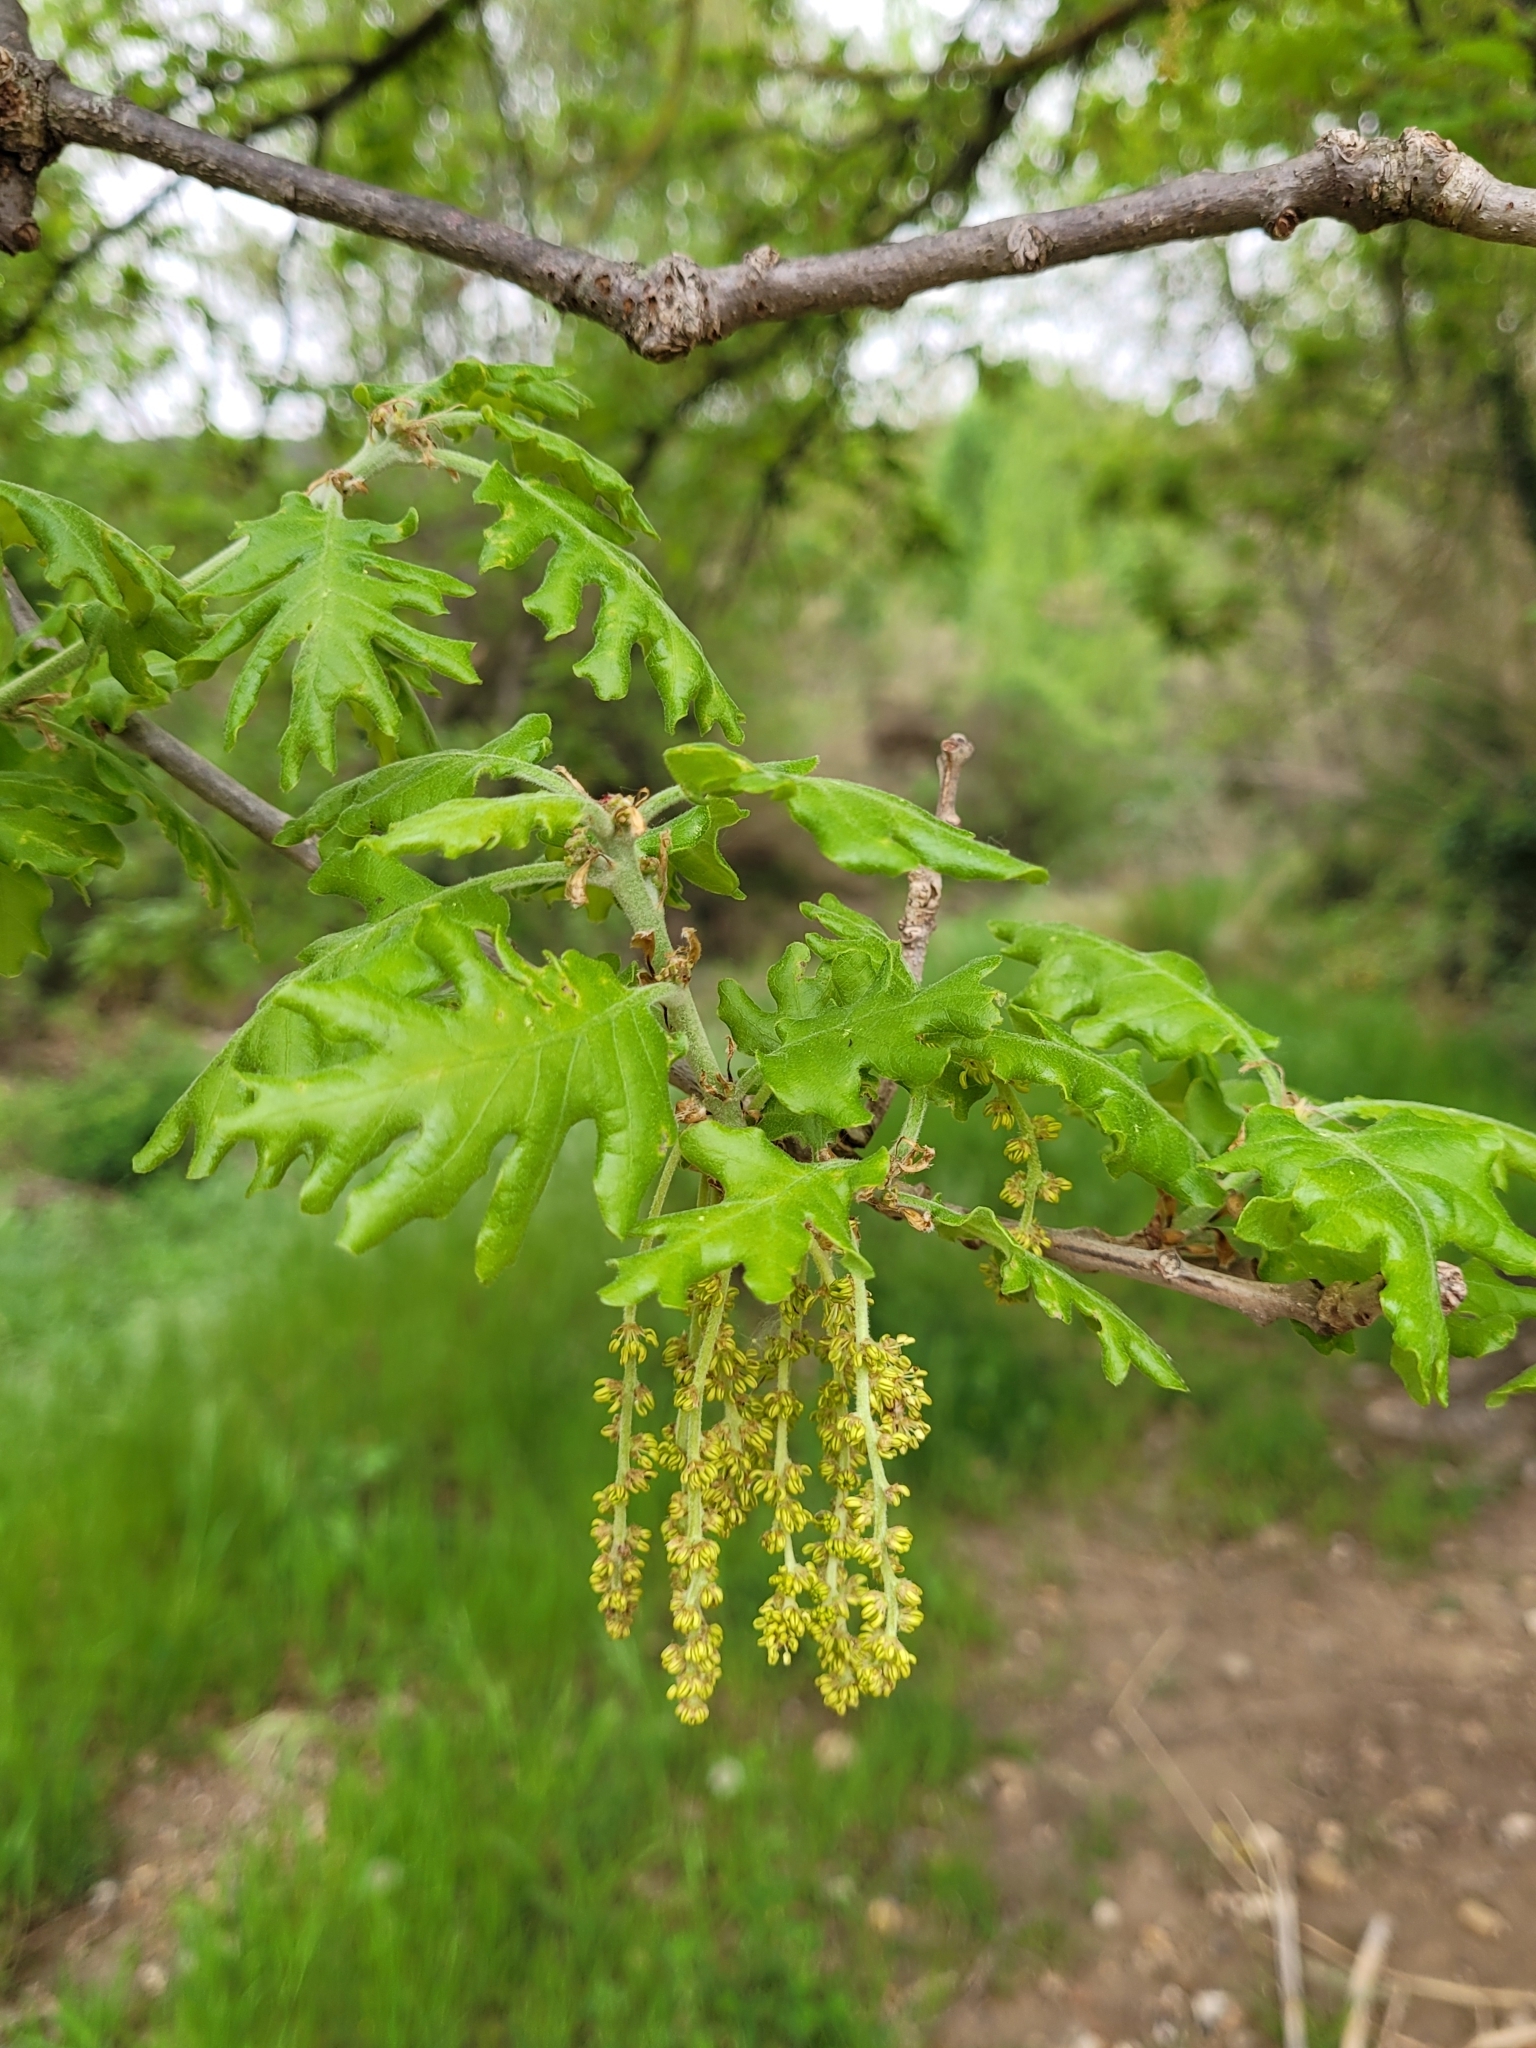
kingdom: Plantae
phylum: Tracheophyta
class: Magnoliopsida
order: Fagales
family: Fagaceae
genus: Quercus
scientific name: Quercus pubescens
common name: Downy oak
